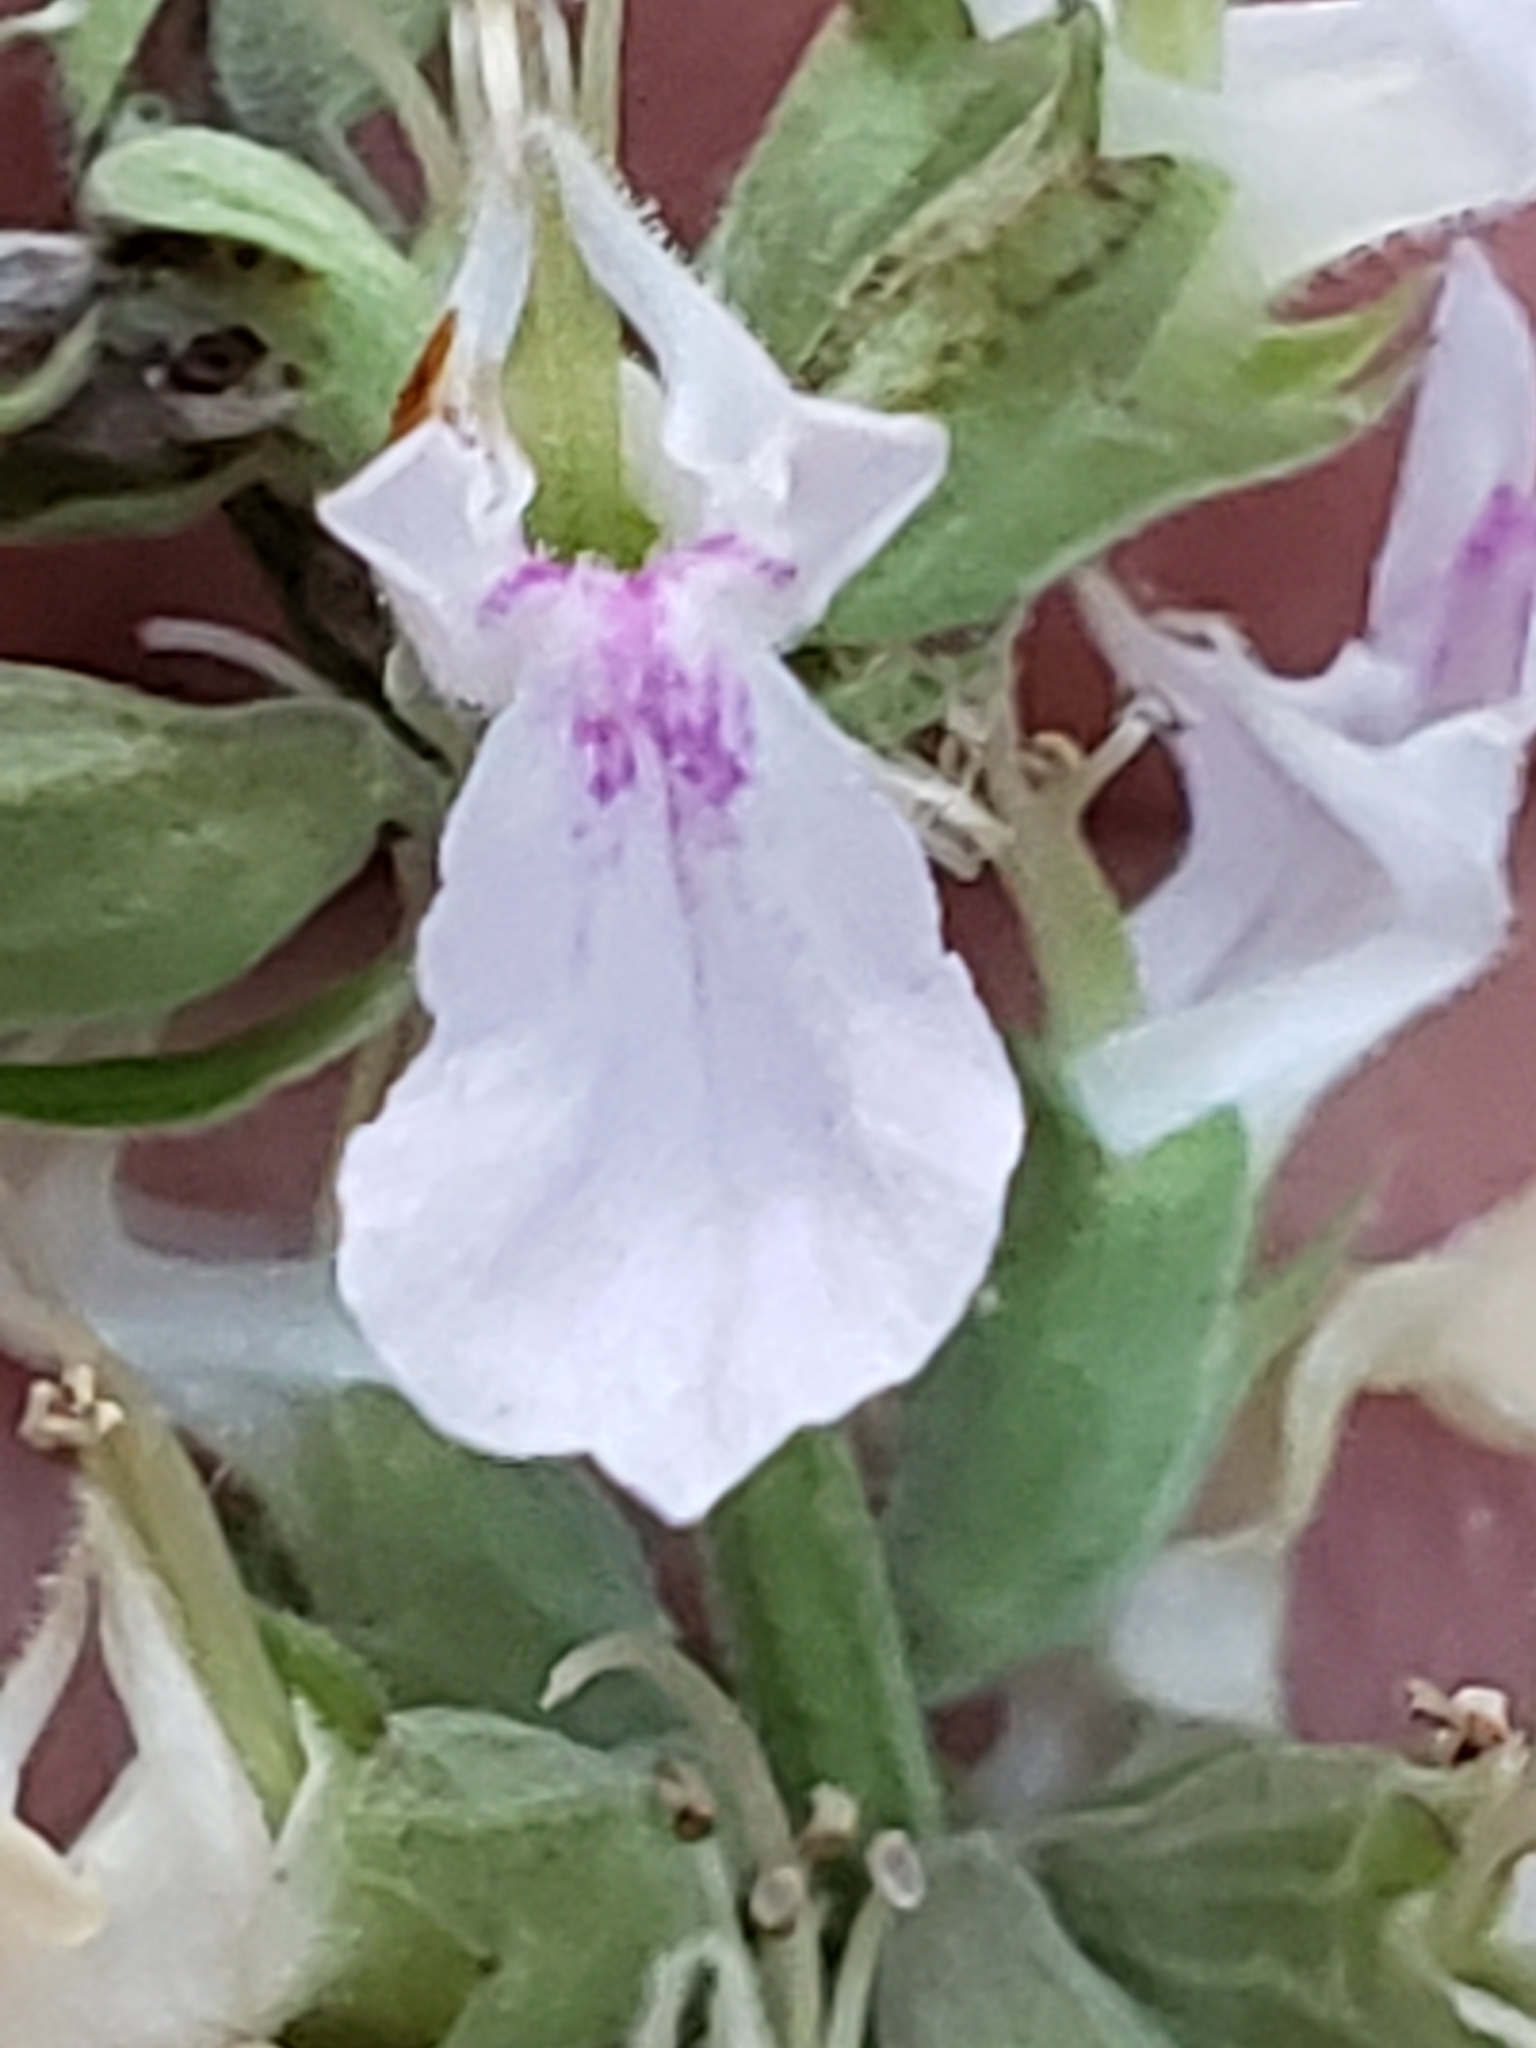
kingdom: Plantae
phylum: Tracheophyta
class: Magnoliopsida
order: Lamiales
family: Lamiaceae
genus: Teucrium
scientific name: Teucrium canadense
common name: American germander
